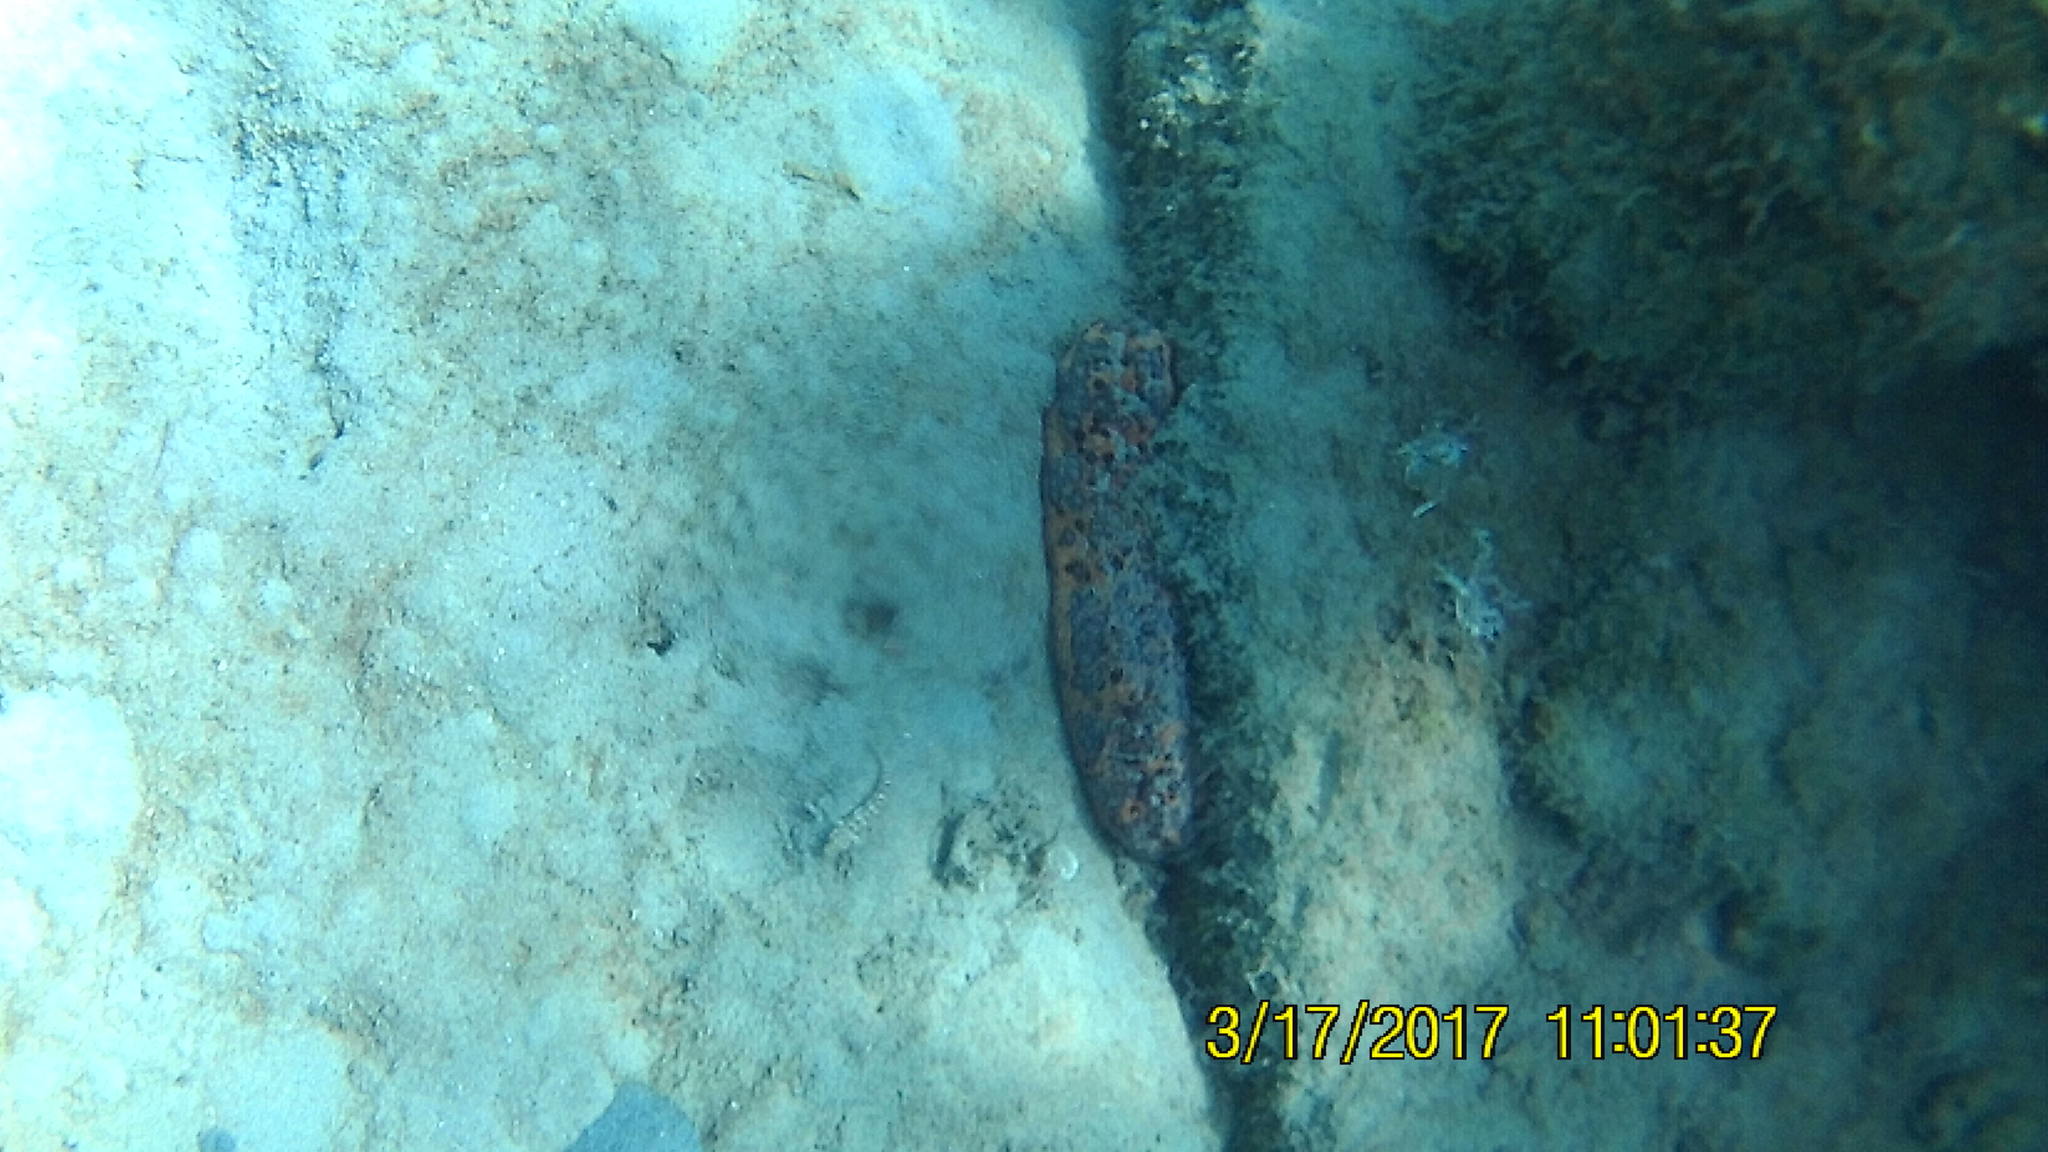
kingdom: Animalia
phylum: Echinodermata
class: Holothuroidea
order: Synallactida
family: Stichopodidae
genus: Isostichopus
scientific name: Isostichopus badionotus
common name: Chocolate chip cucumber
